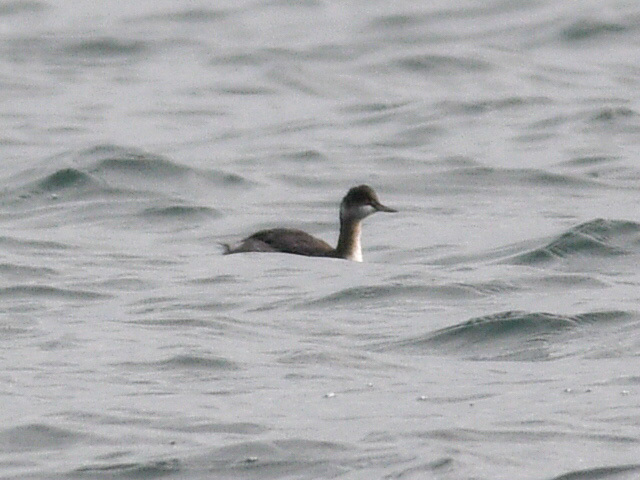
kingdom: Animalia
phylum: Chordata
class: Aves
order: Podicipediformes
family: Podicipedidae
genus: Podiceps
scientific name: Podiceps nigricollis
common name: Black-necked grebe
